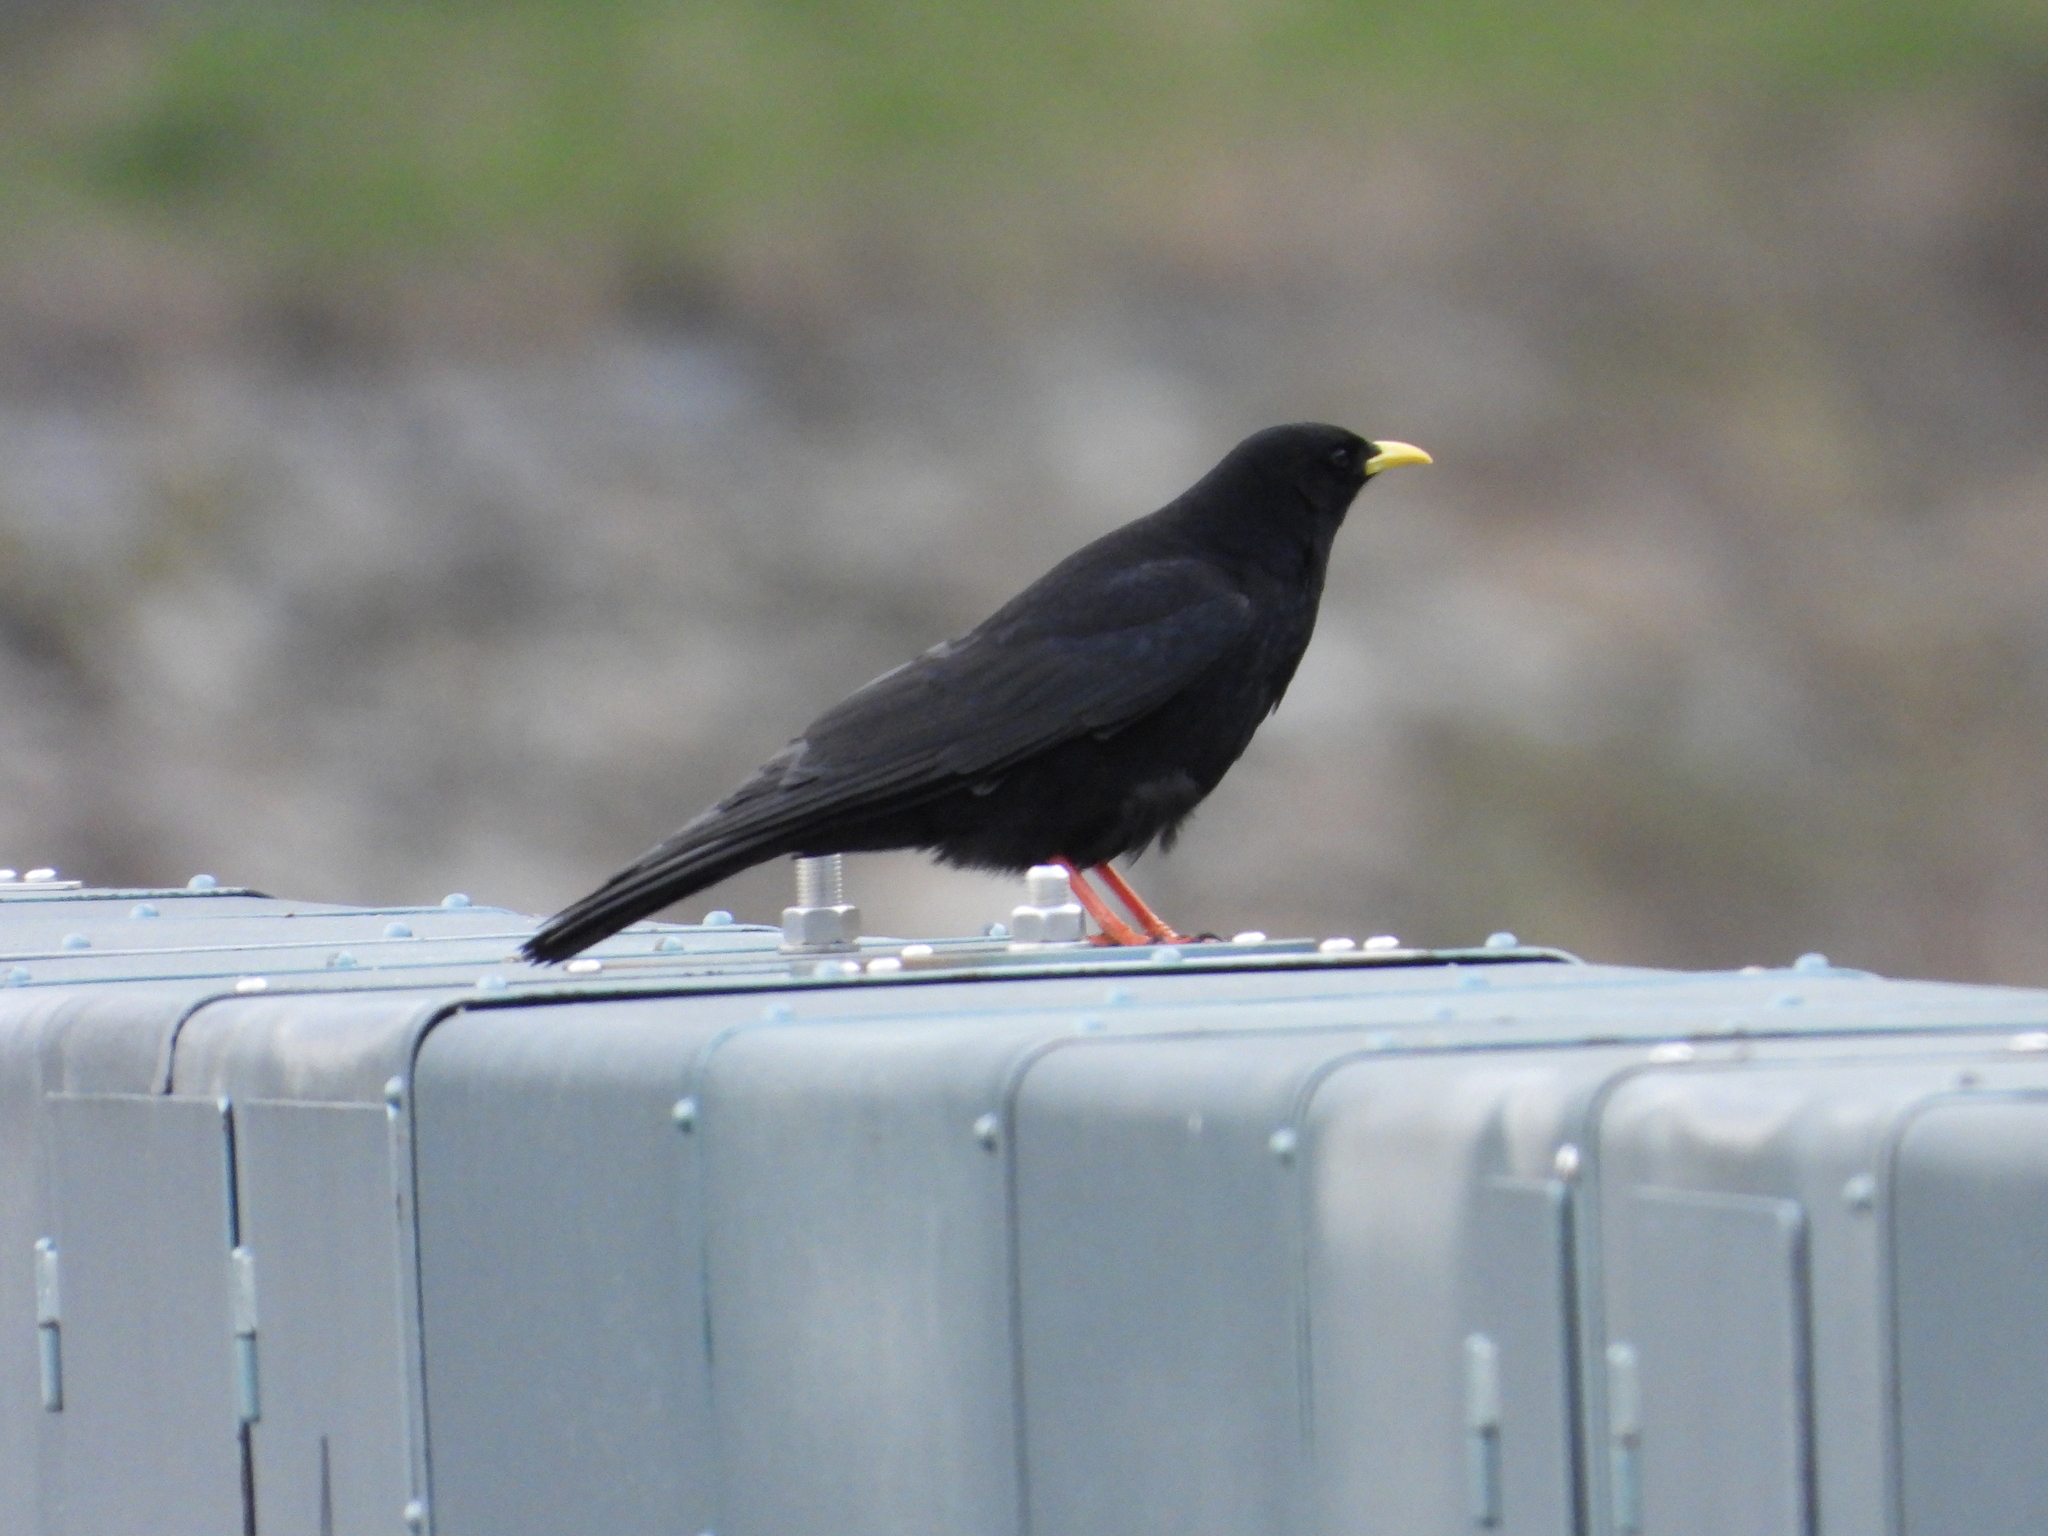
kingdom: Animalia
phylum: Chordata
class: Aves
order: Passeriformes
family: Corvidae
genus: Pyrrhocorax
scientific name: Pyrrhocorax graculus
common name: Alpine chough
